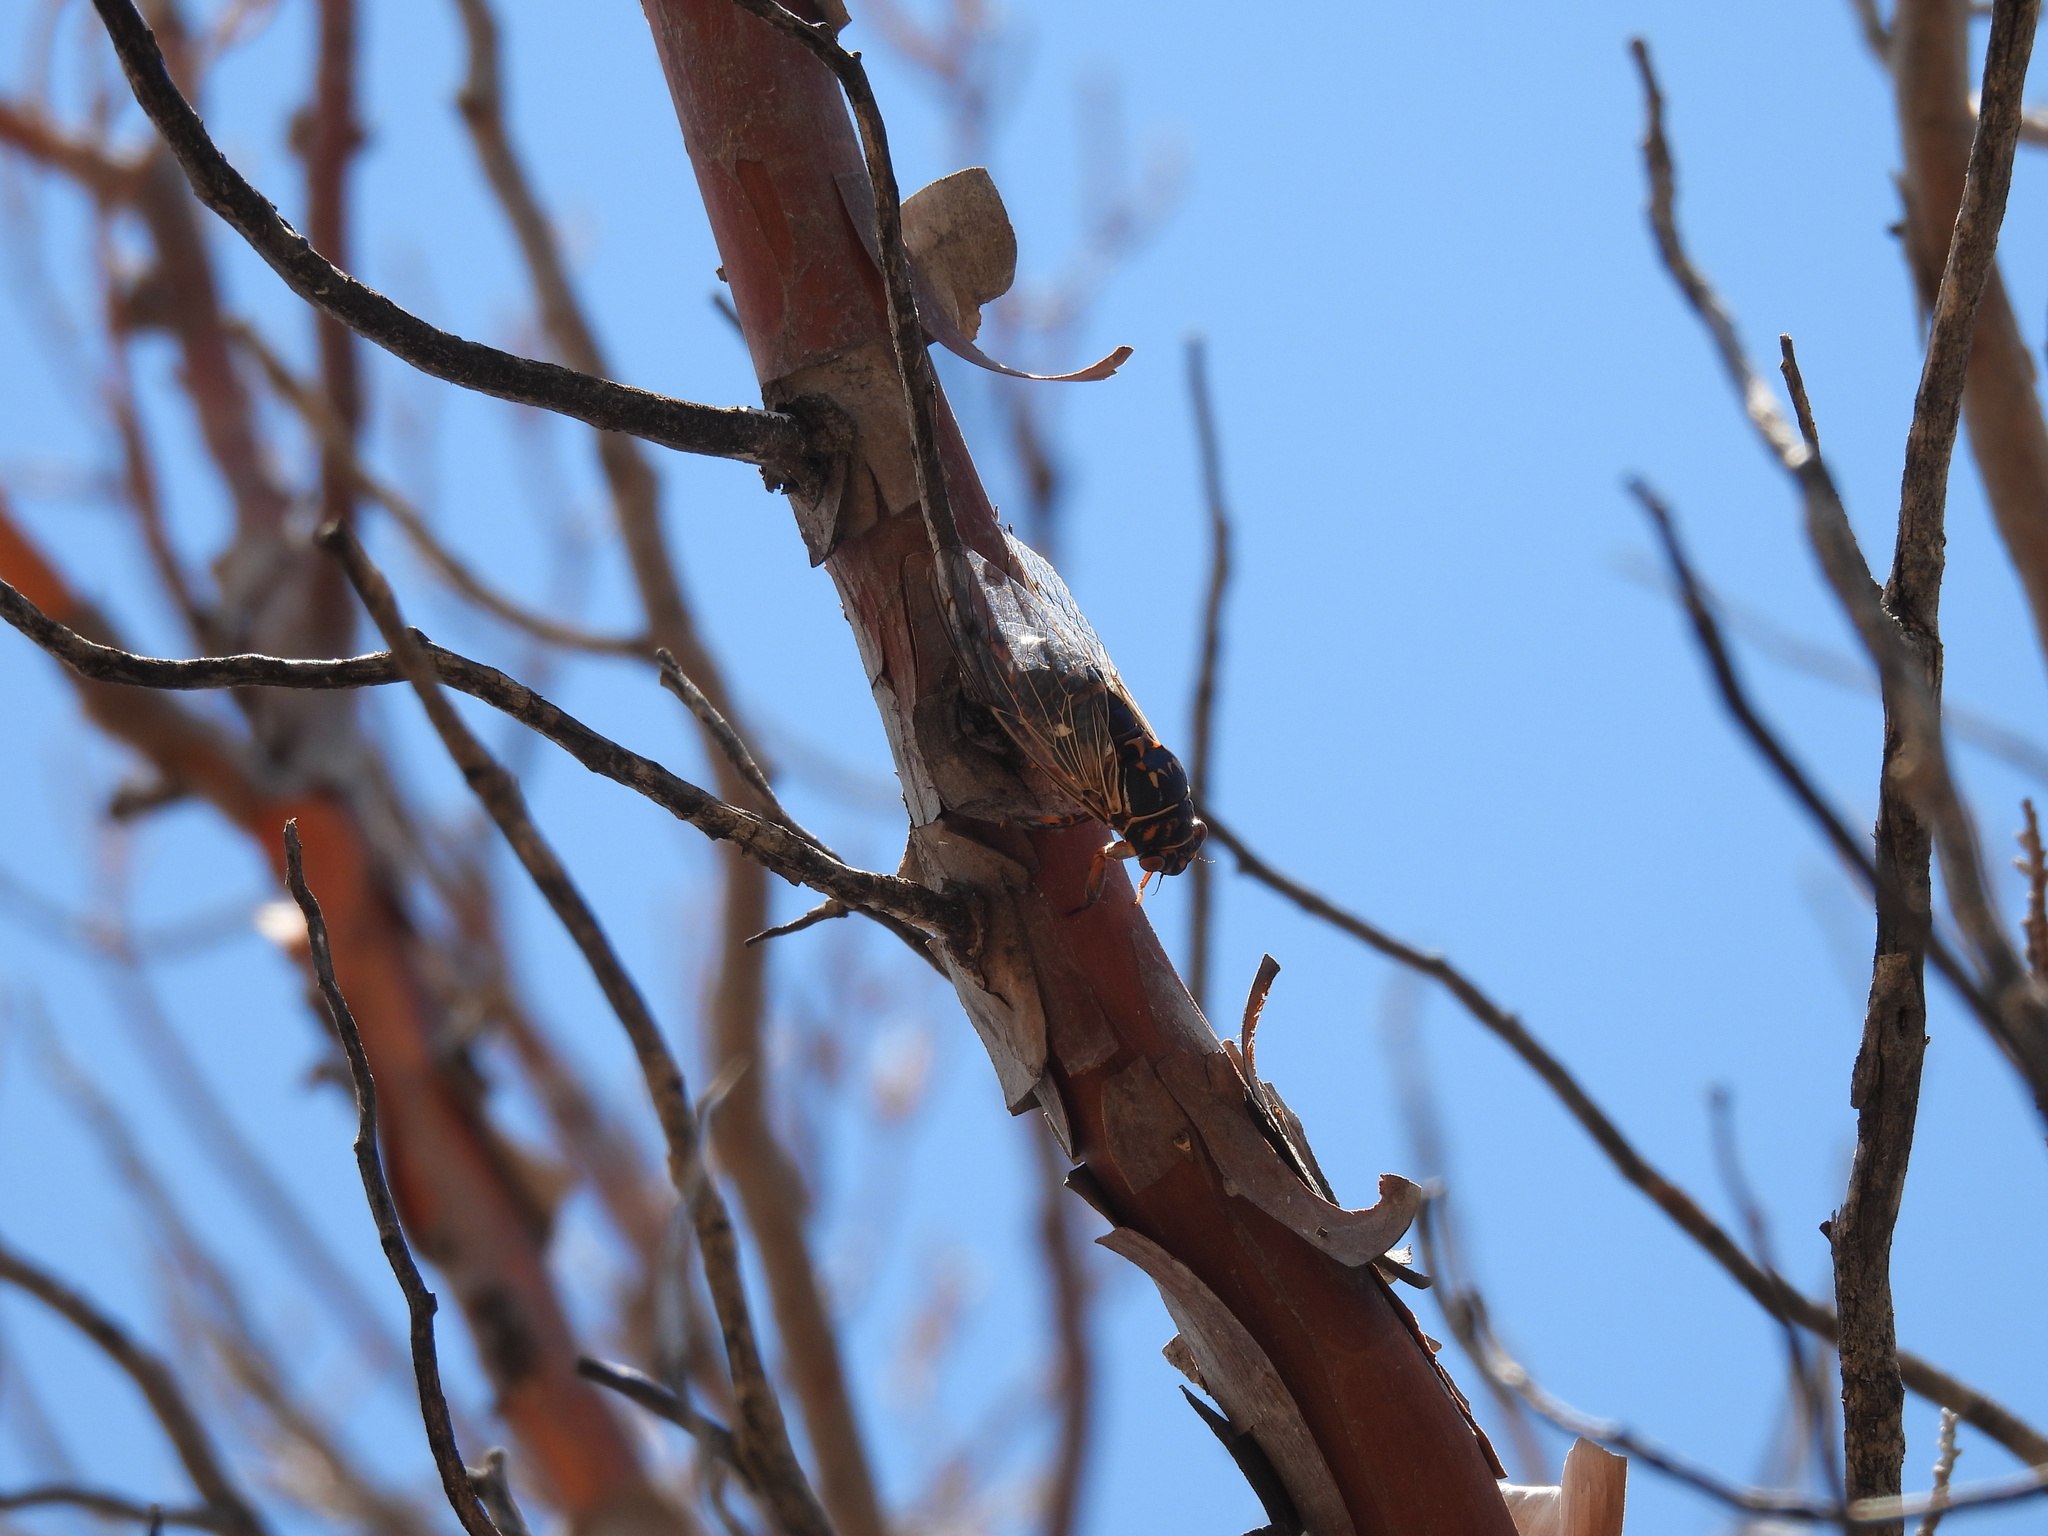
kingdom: Animalia
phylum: Arthropoda
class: Insecta
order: Hemiptera
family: Cicadidae
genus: Hadoa
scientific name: Hadoa duryi
